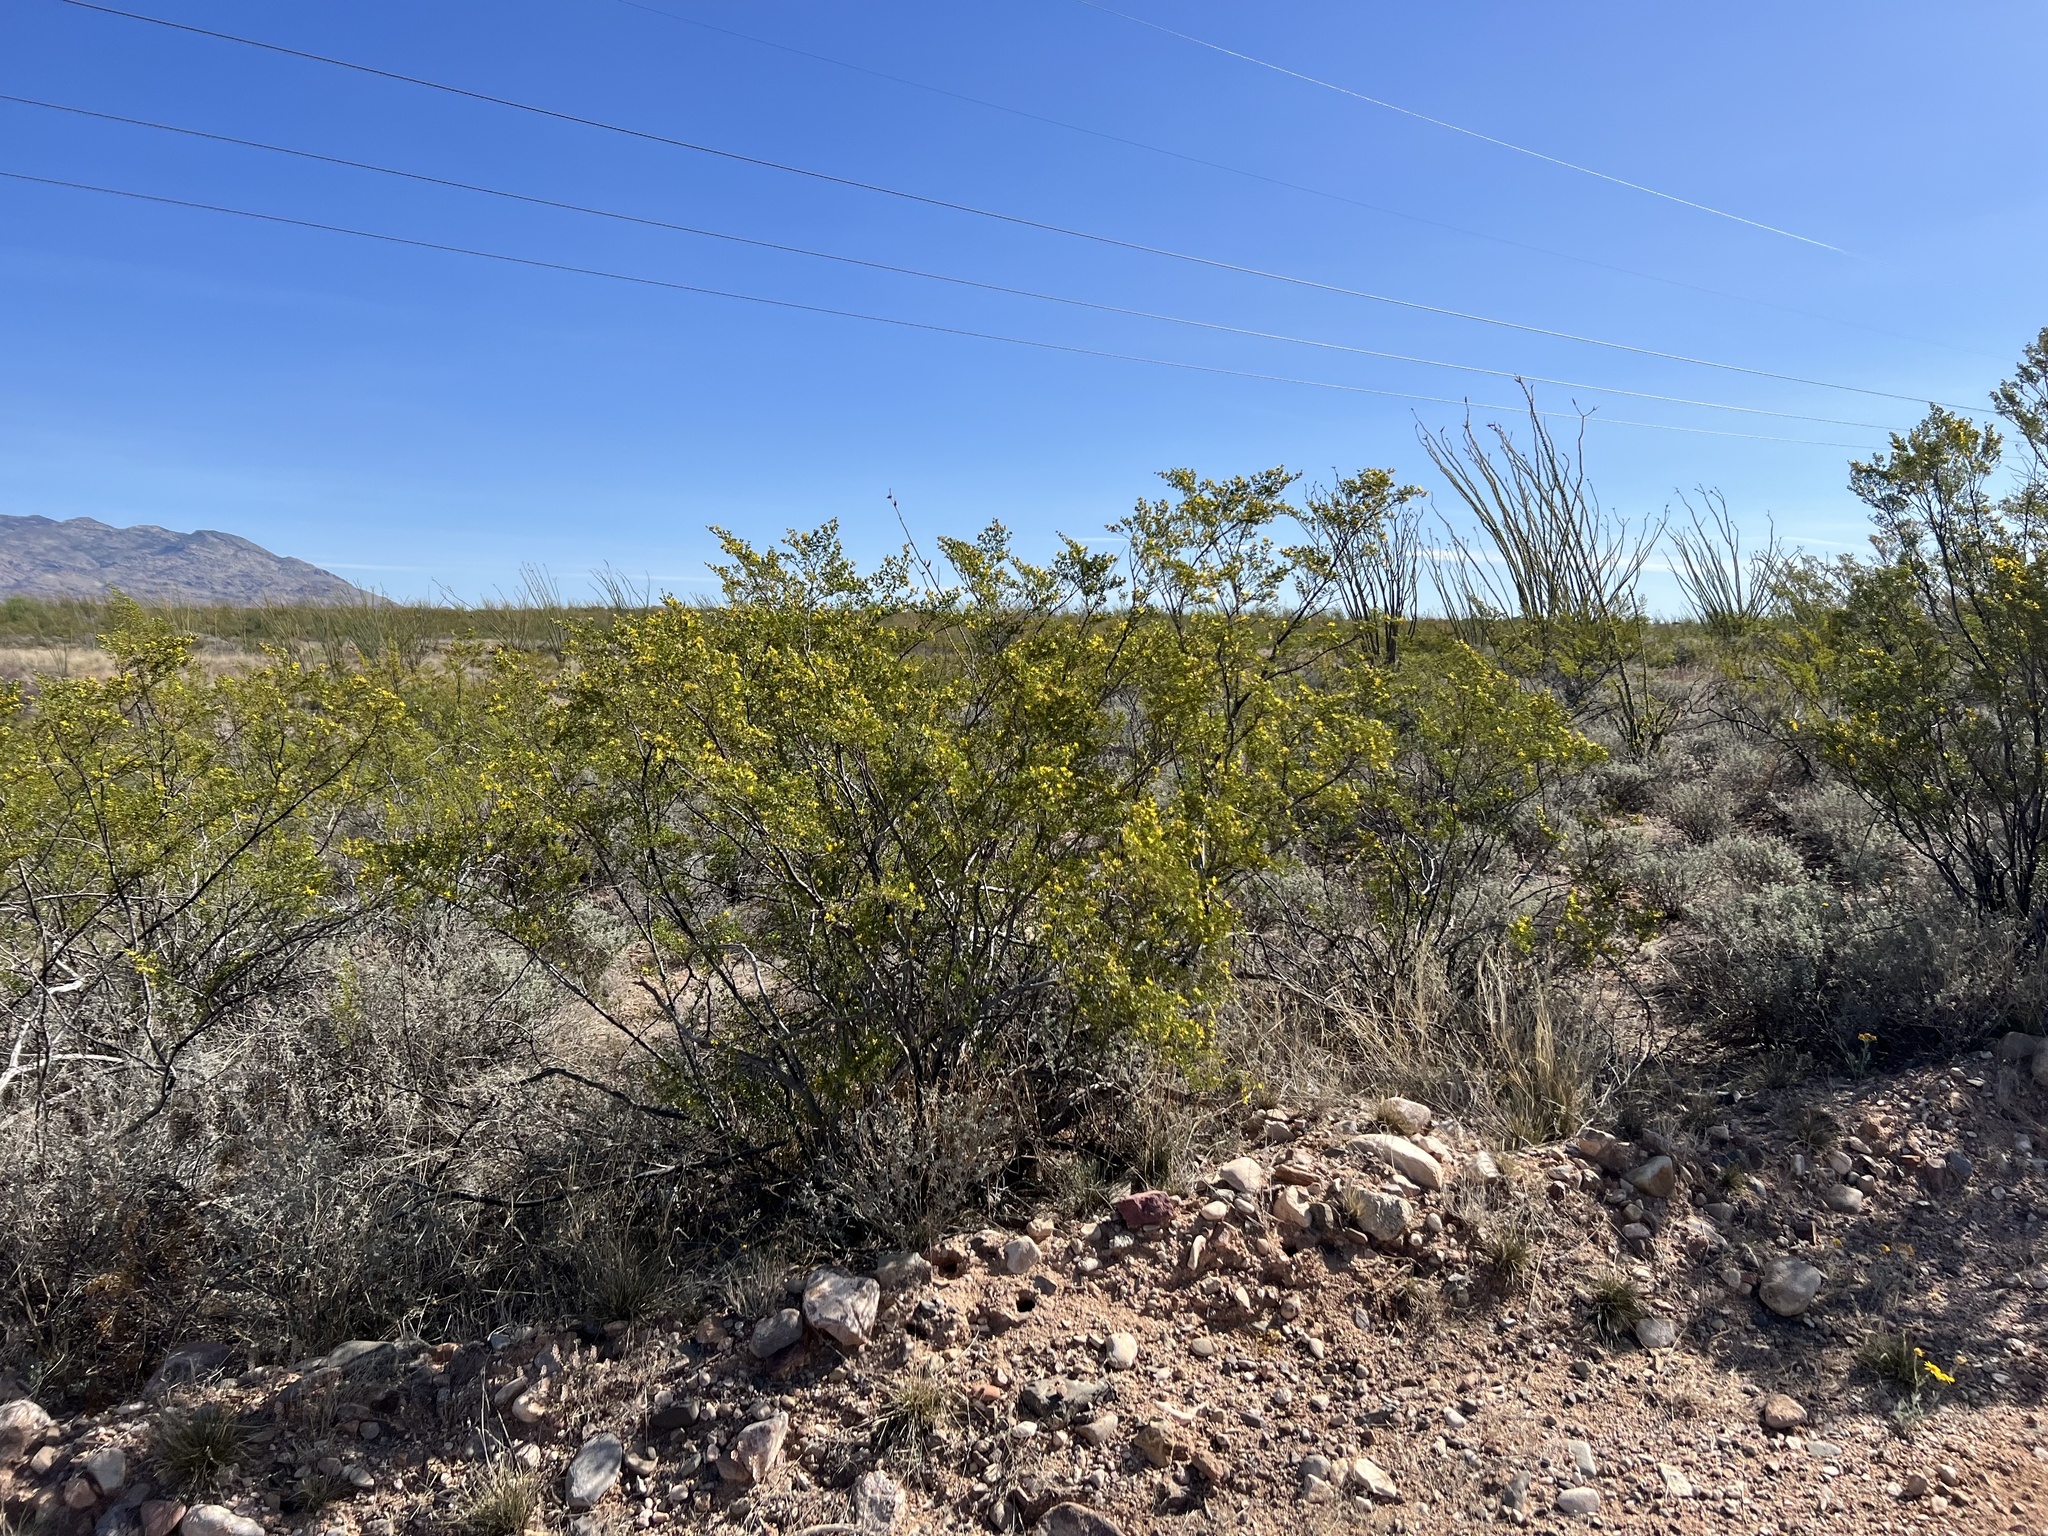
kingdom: Plantae
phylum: Tracheophyta
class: Magnoliopsida
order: Zygophyllales
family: Zygophyllaceae
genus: Larrea
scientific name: Larrea tridentata
